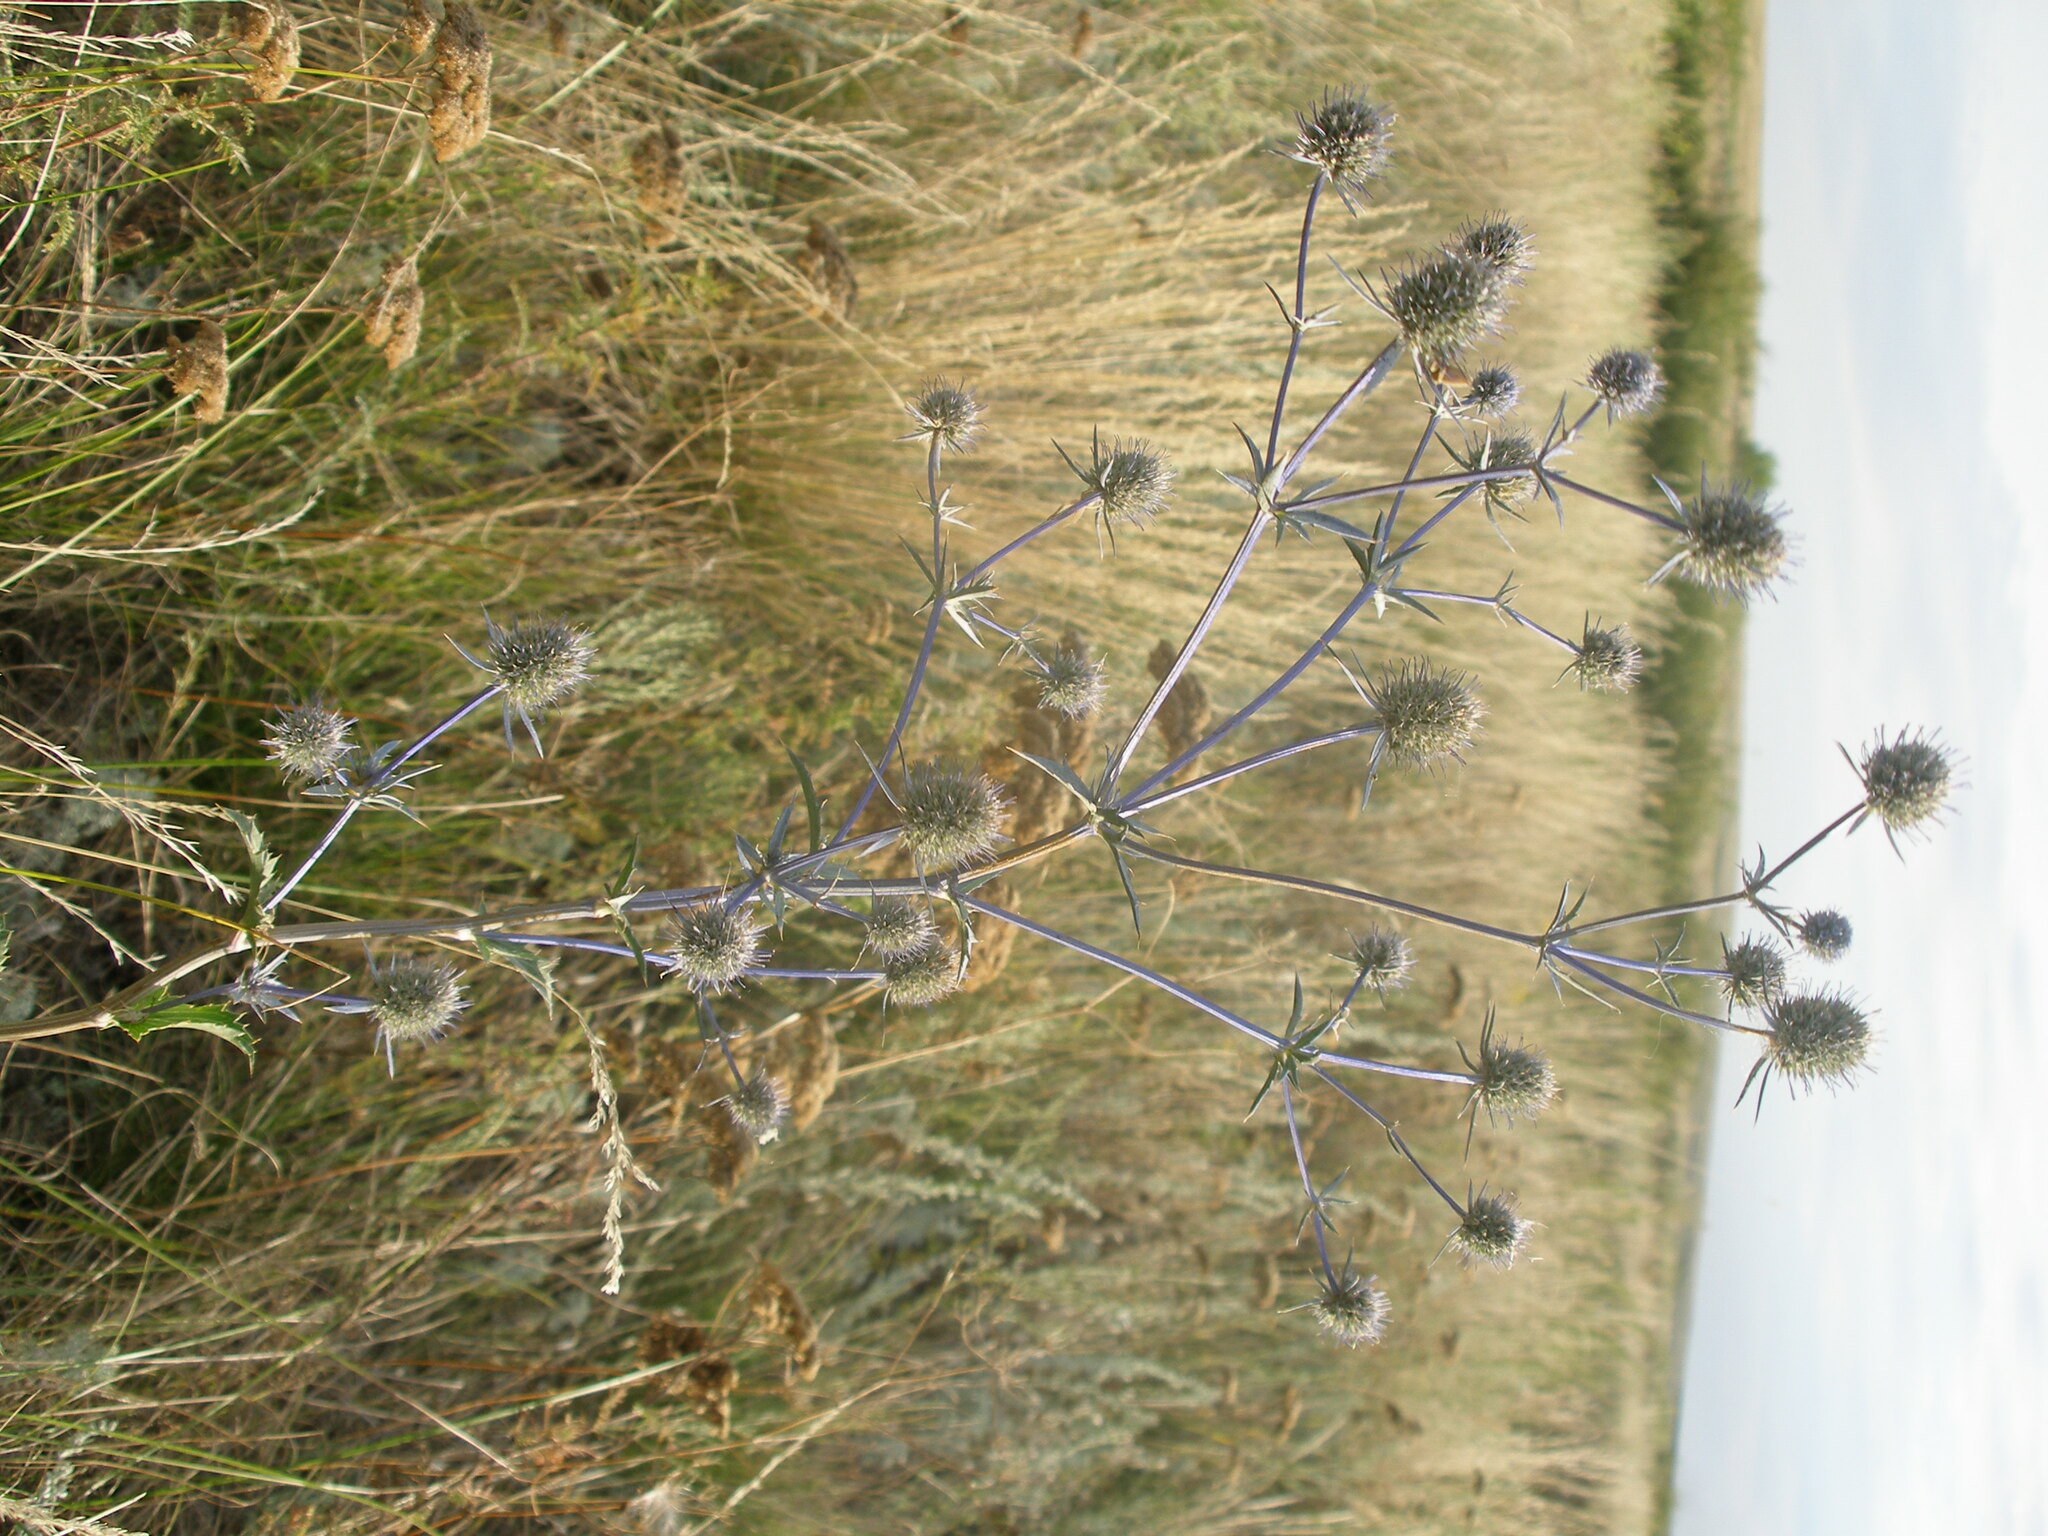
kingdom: Plantae
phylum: Tracheophyta
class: Magnoliopsida
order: Apiales
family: Apiaceae
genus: Eryngium
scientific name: Eryngium planum
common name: Blue eryngo
